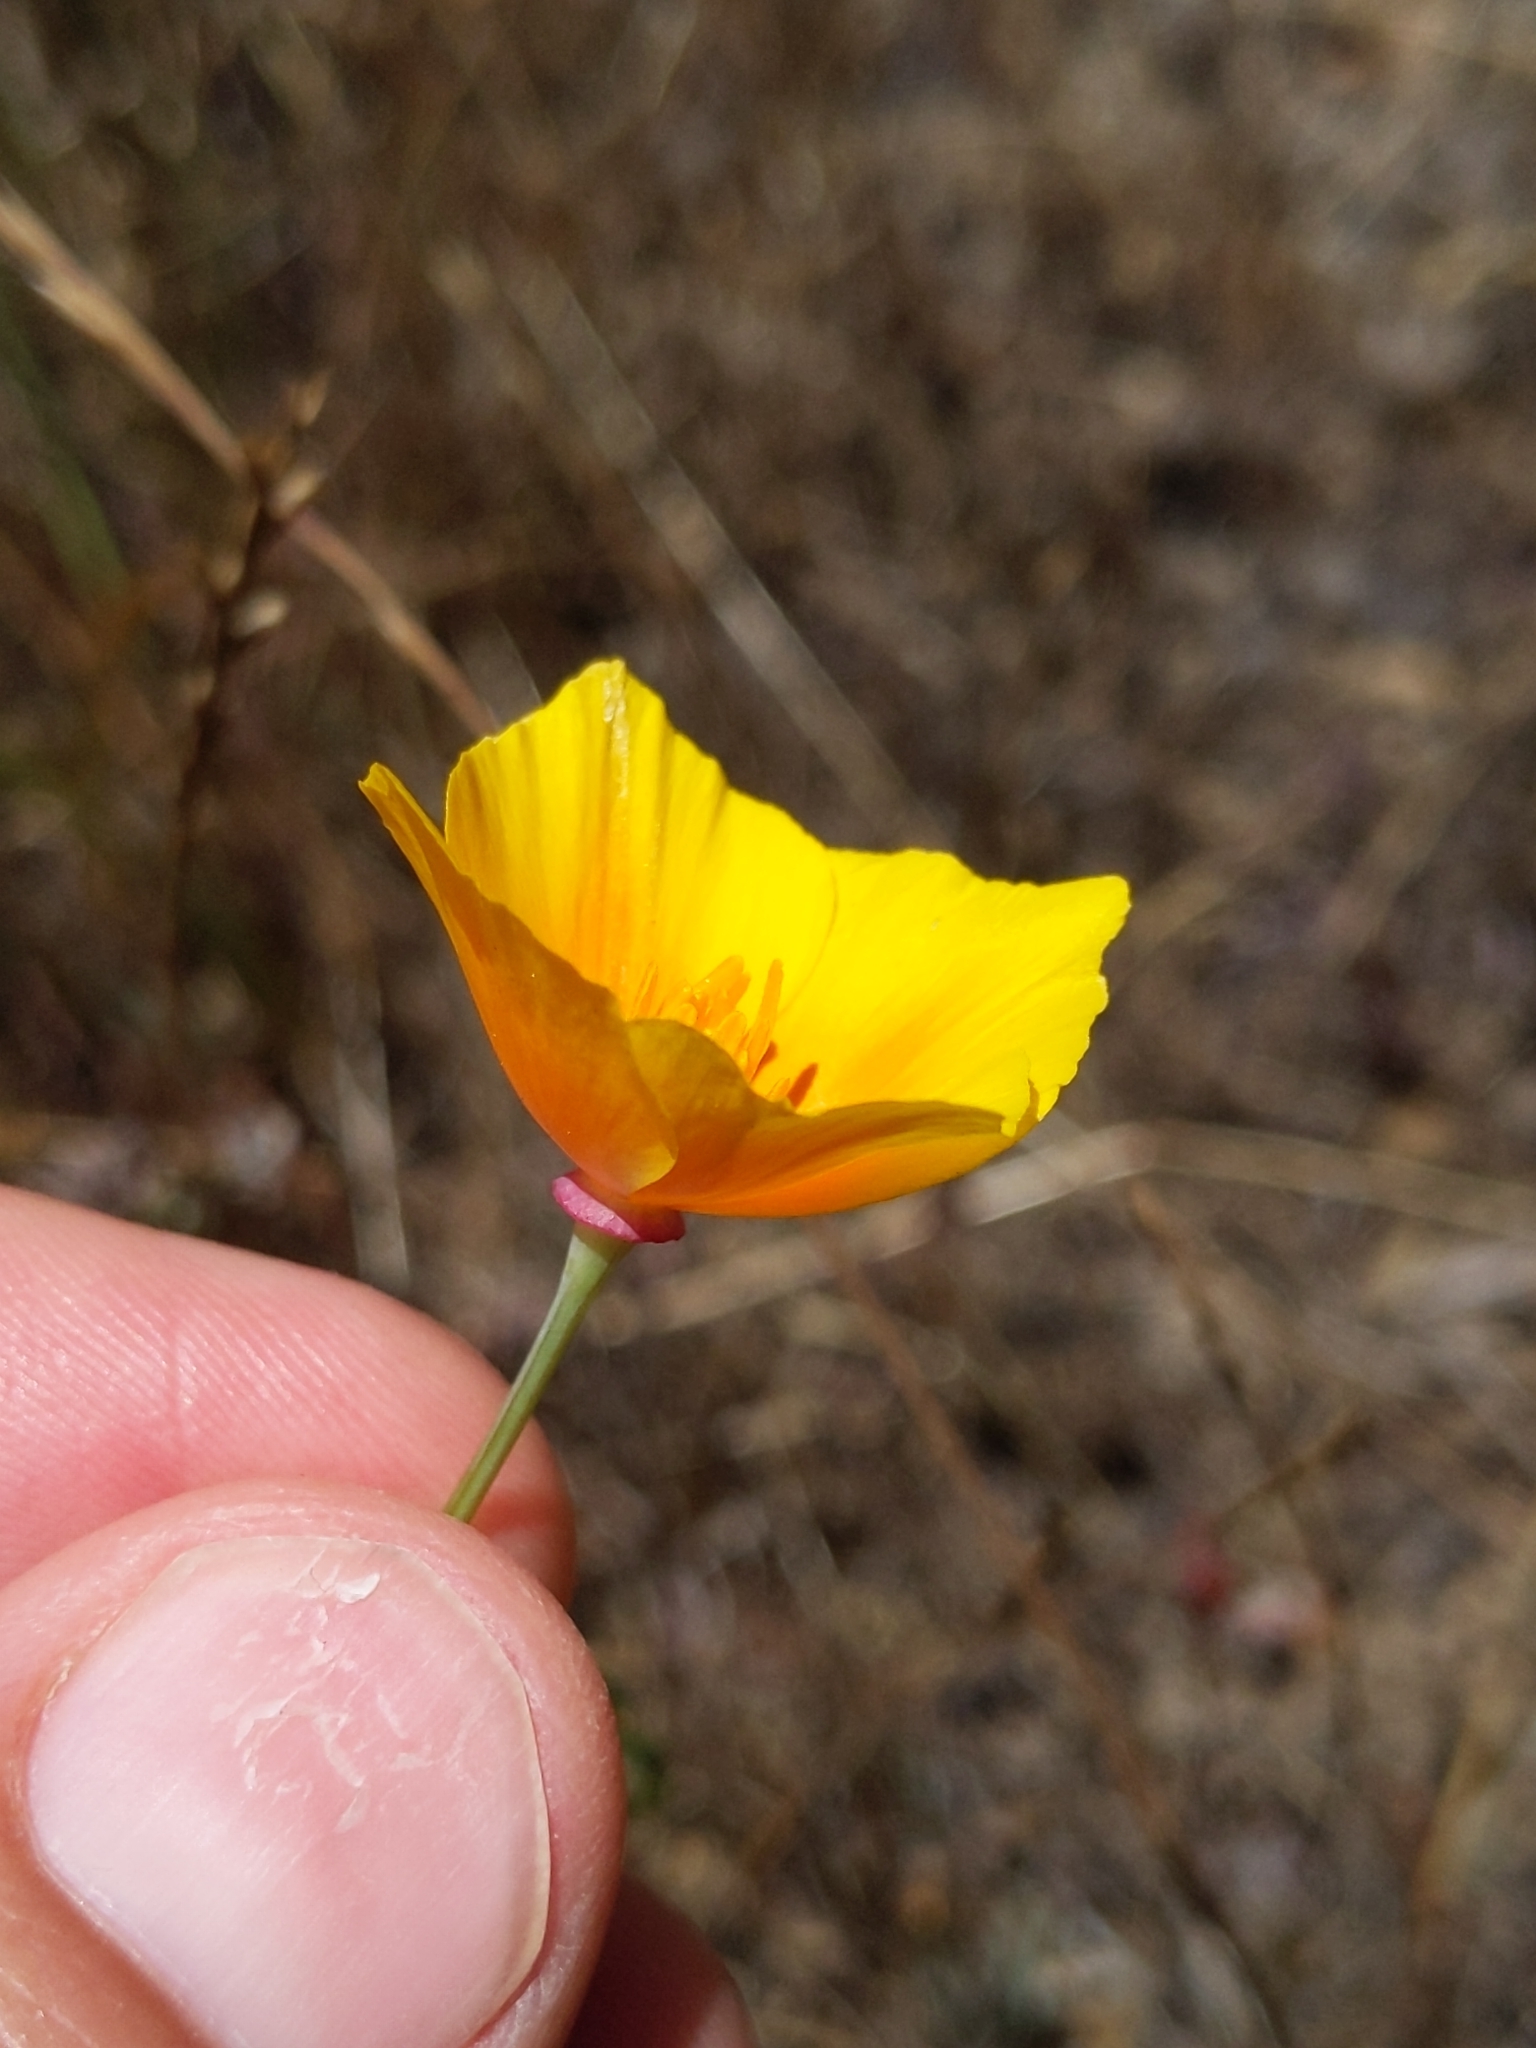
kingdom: Plantae
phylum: Tracheophyta
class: Magnoliopsida
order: Ranunculales
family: Papaveraceae
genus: Eschscholzia
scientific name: Eschscholzia californica
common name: California poppy
